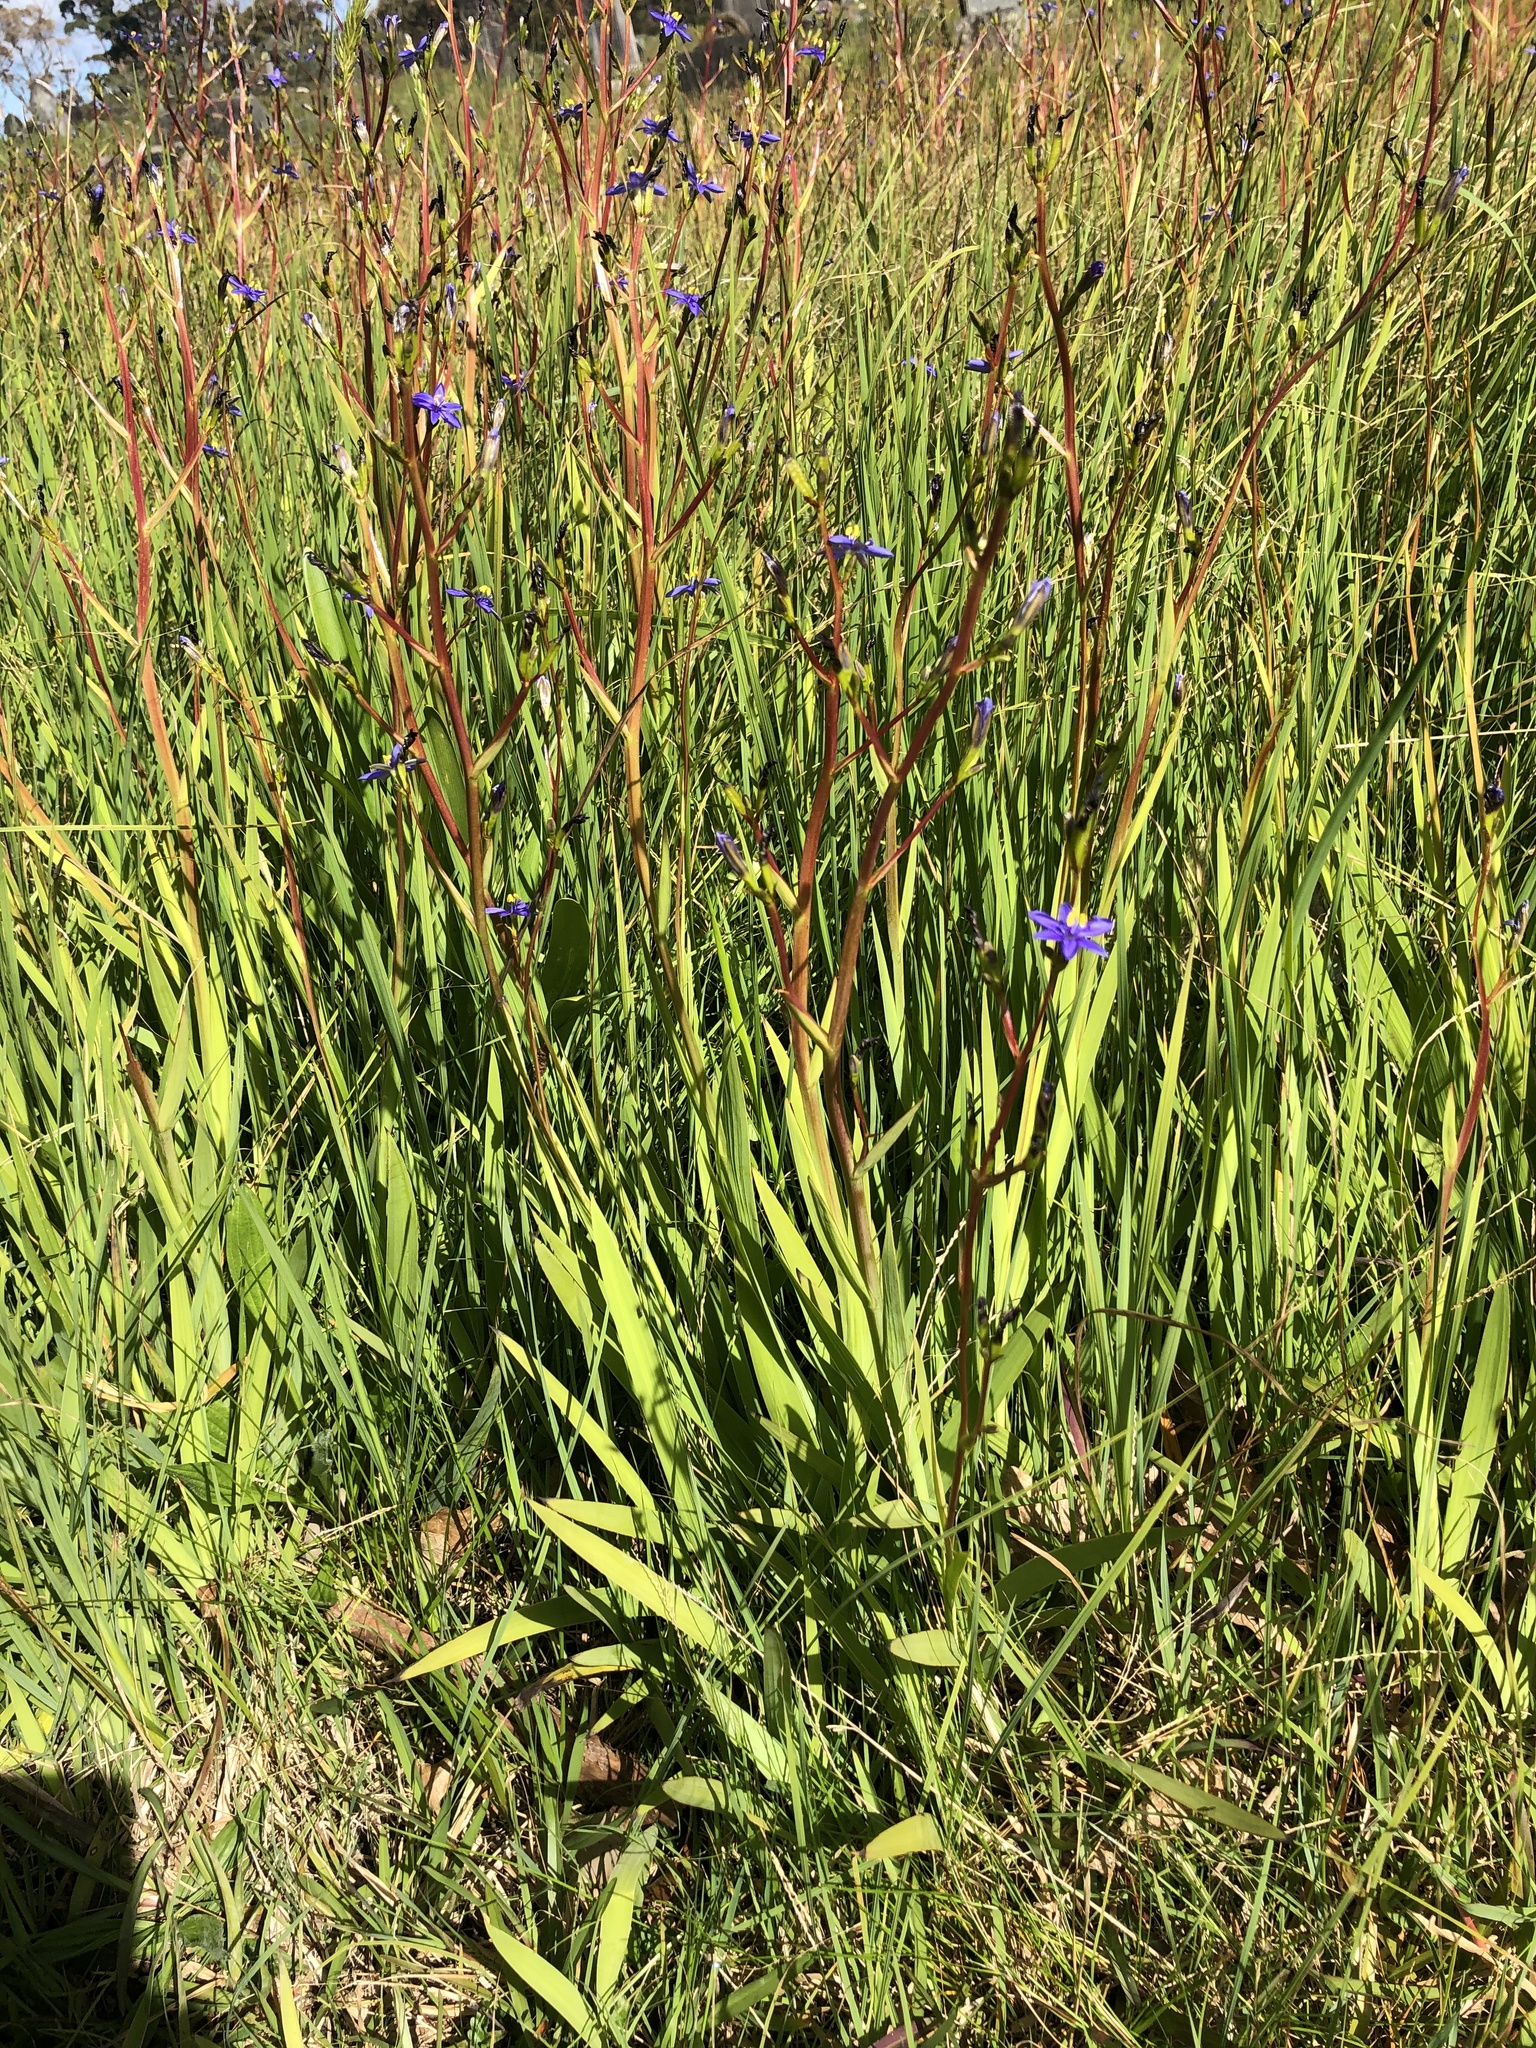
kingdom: Plantae
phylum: Tracheophyta
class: Liliopsida
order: Asparagales
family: Iridaceae
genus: Aristea
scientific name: Aristea ecklonii
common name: Blue corn-lily
